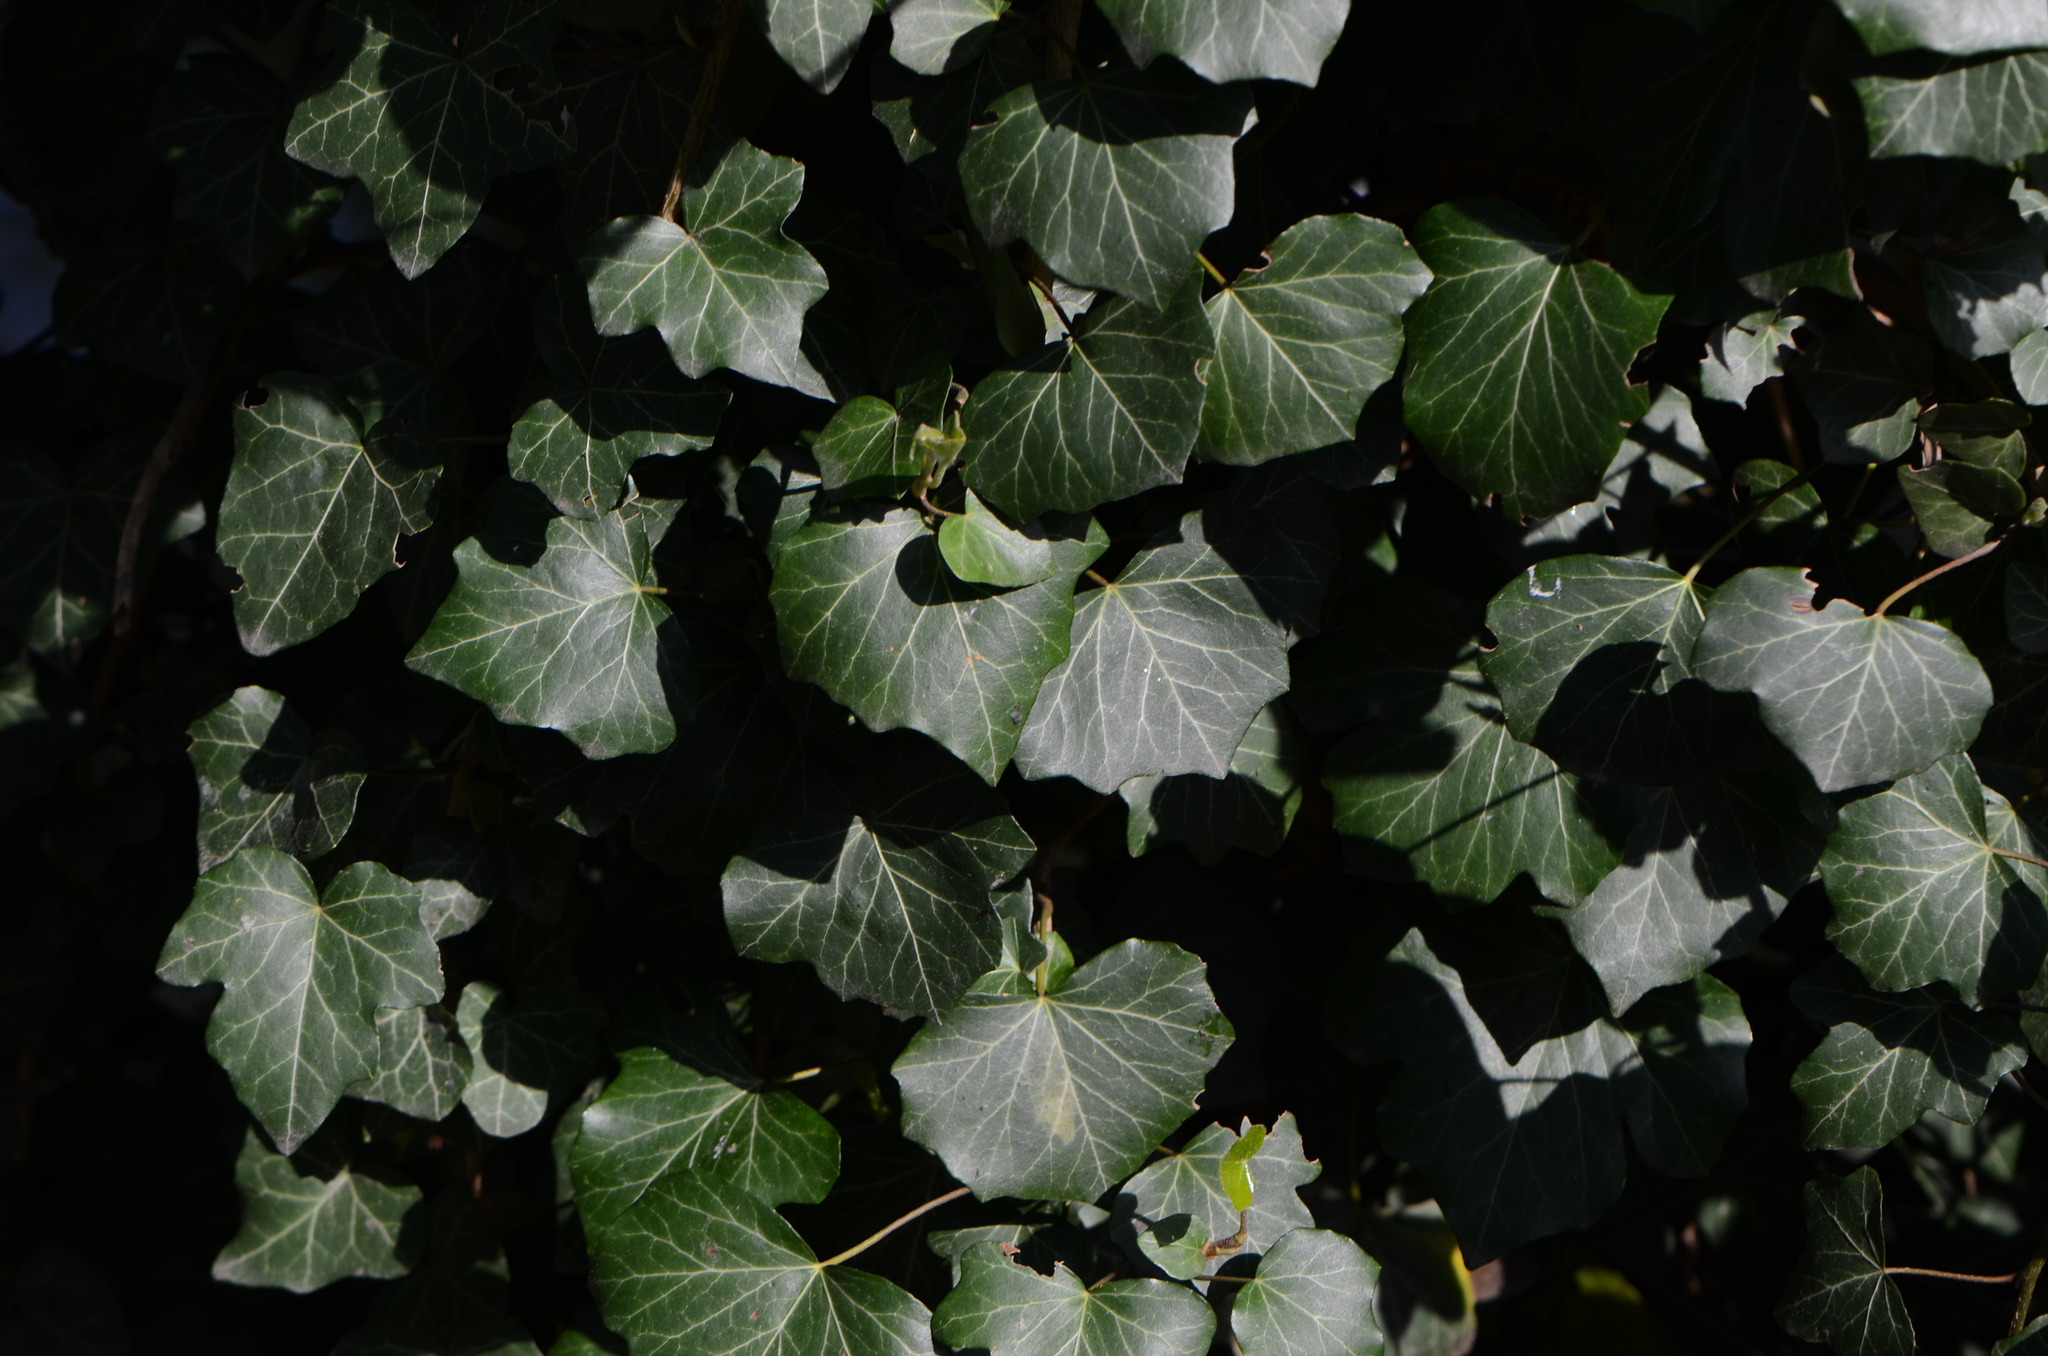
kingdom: Plantae
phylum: Tracheophyta
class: Magnoliopsida
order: Apiales
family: Araliaceae
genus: Hedera
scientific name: Hedera helix
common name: Ivy
